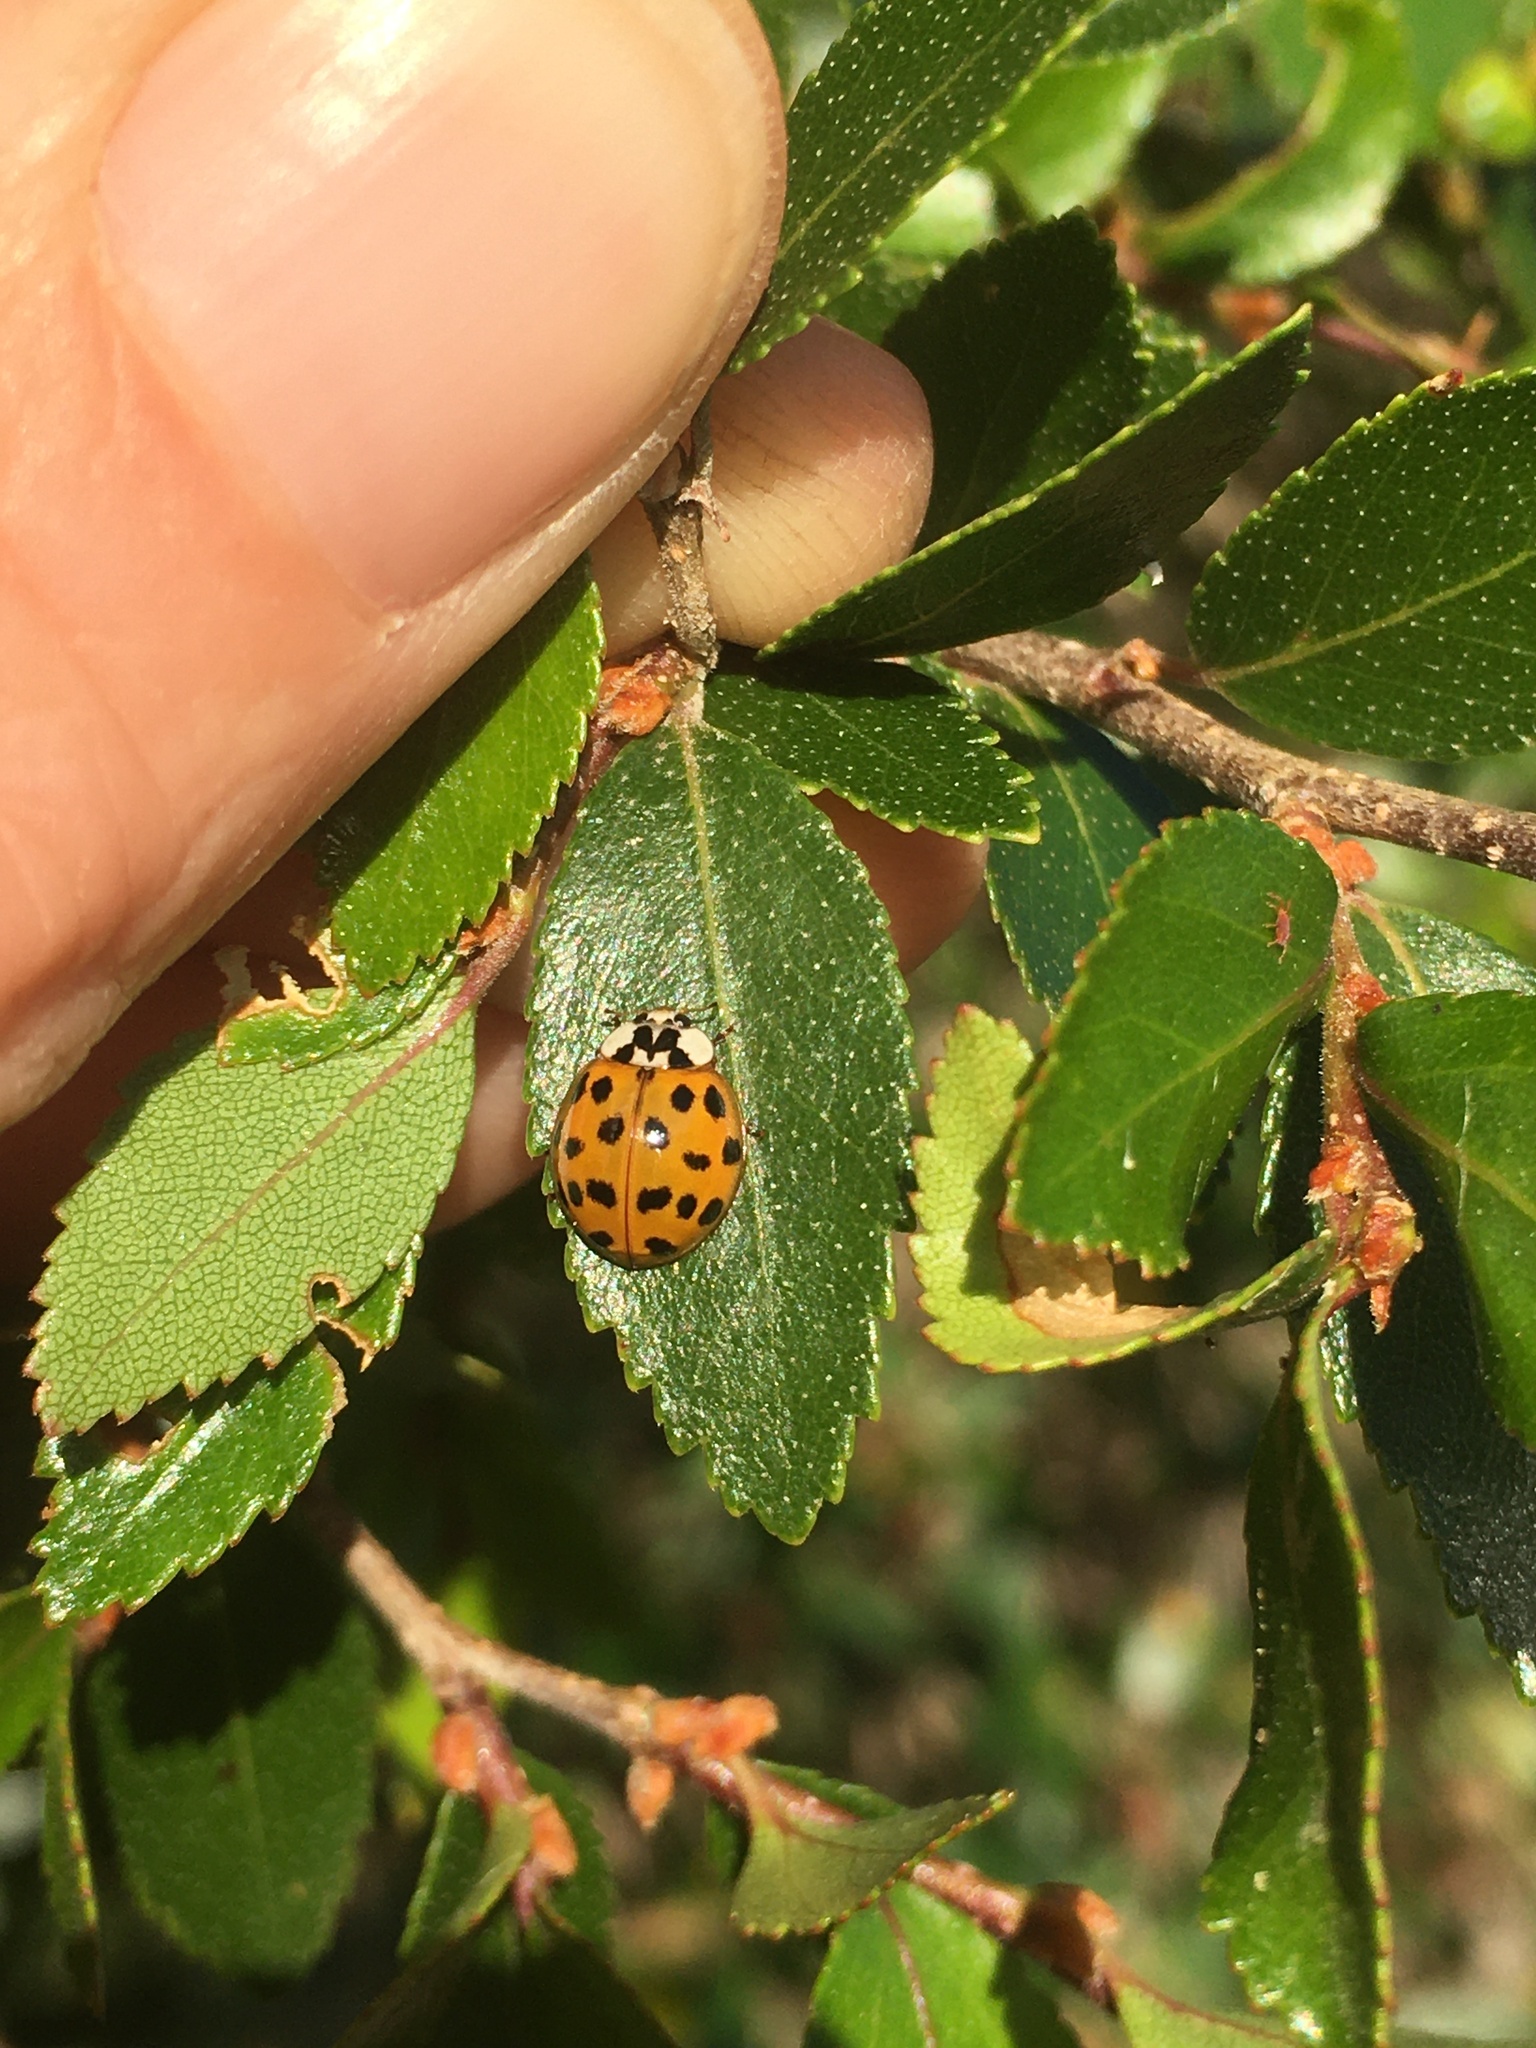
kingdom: Animalia
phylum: Arthropoda
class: Insecta
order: Coleoptera
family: Coccinellidae
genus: Harmonia
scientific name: Harmonia axyridis
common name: Harlequin ladybird
